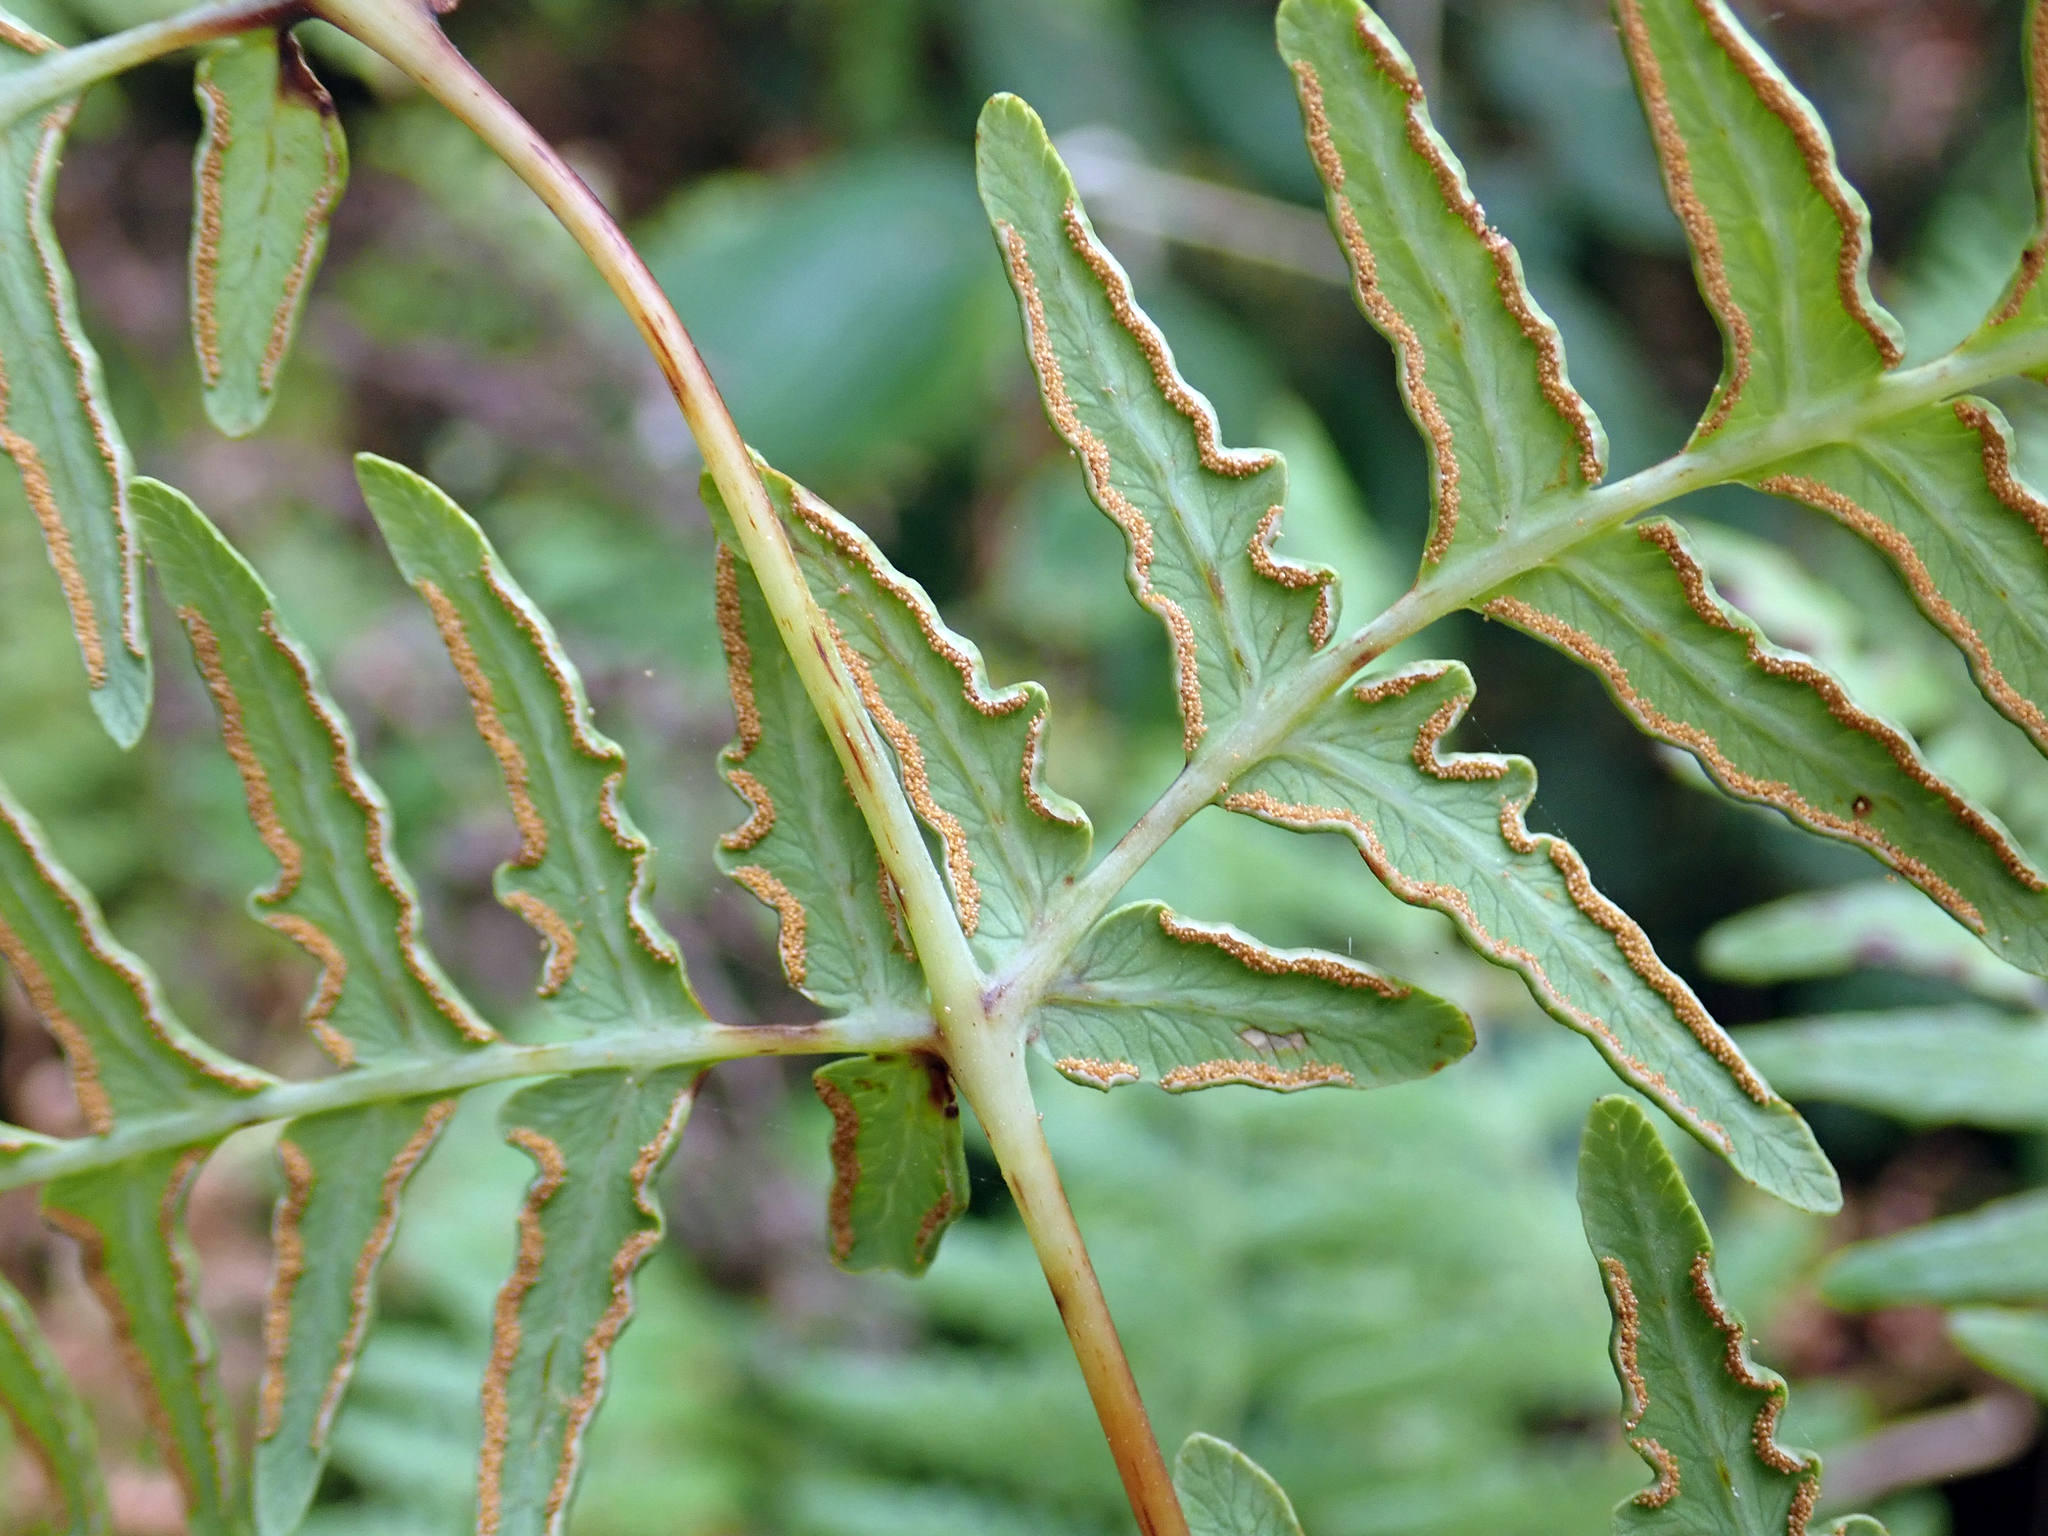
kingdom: Plantae
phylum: Tracheophyta
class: Polypodiopsida
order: Polypodiales
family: Dennstaedtiaceae
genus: Histiopteris
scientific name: Histiopteris incisa
